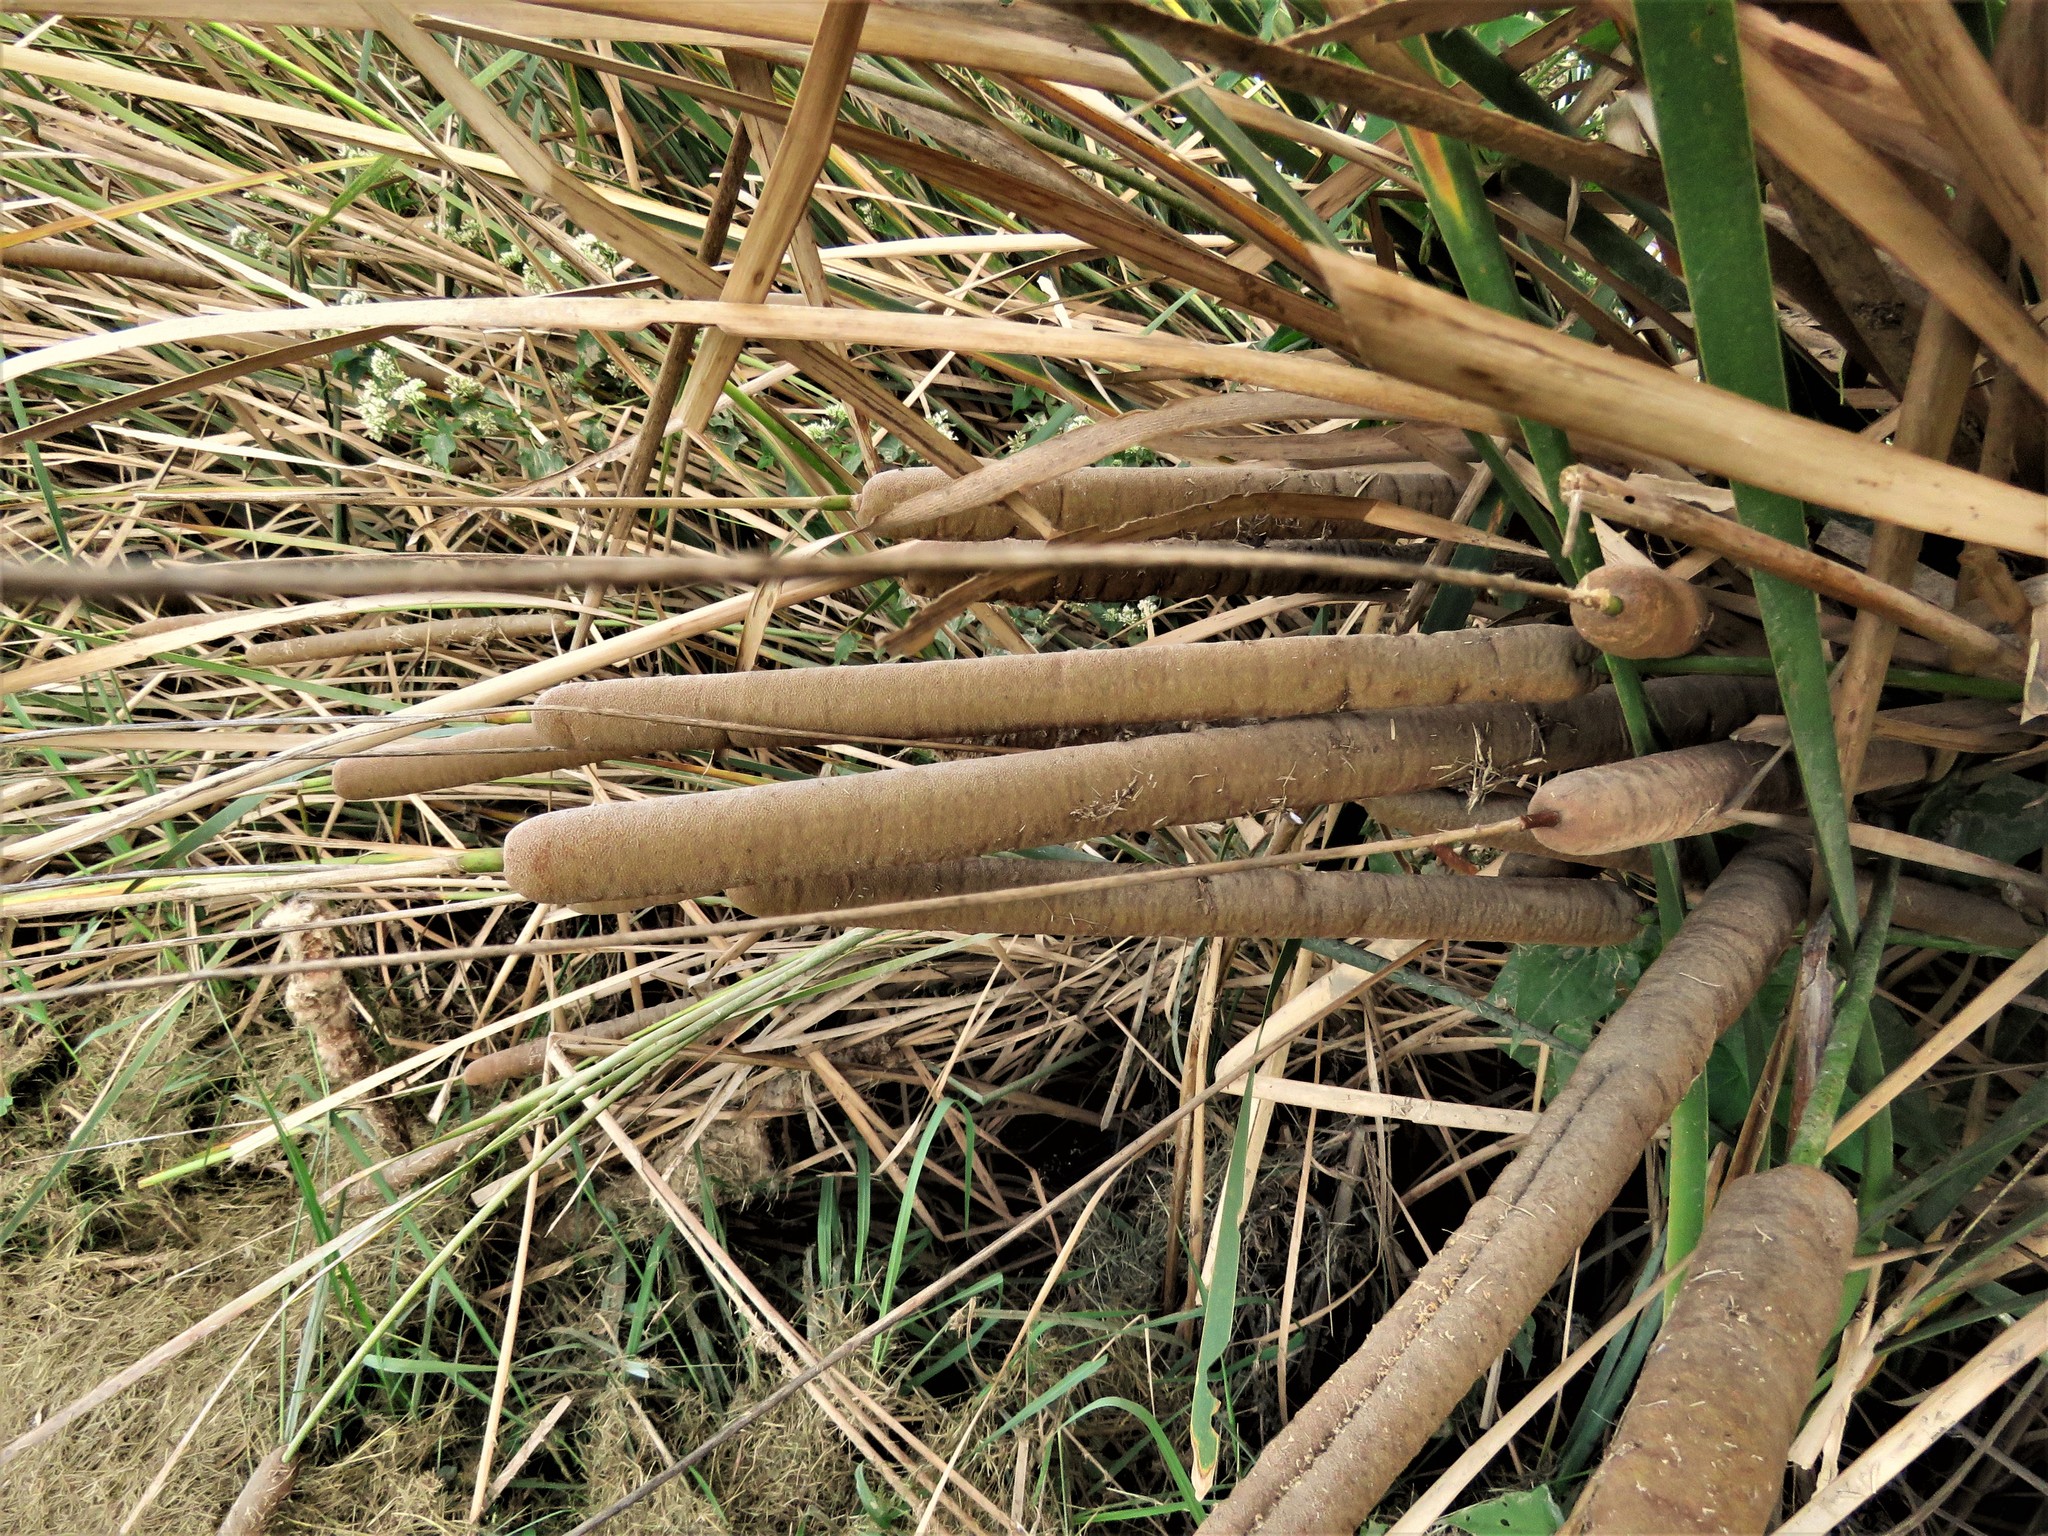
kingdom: Plantae
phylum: Tracheophyta
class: Liliopsida
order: Poales
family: Typhaceae
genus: Typha
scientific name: Typha domingensis
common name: Southern cattail
